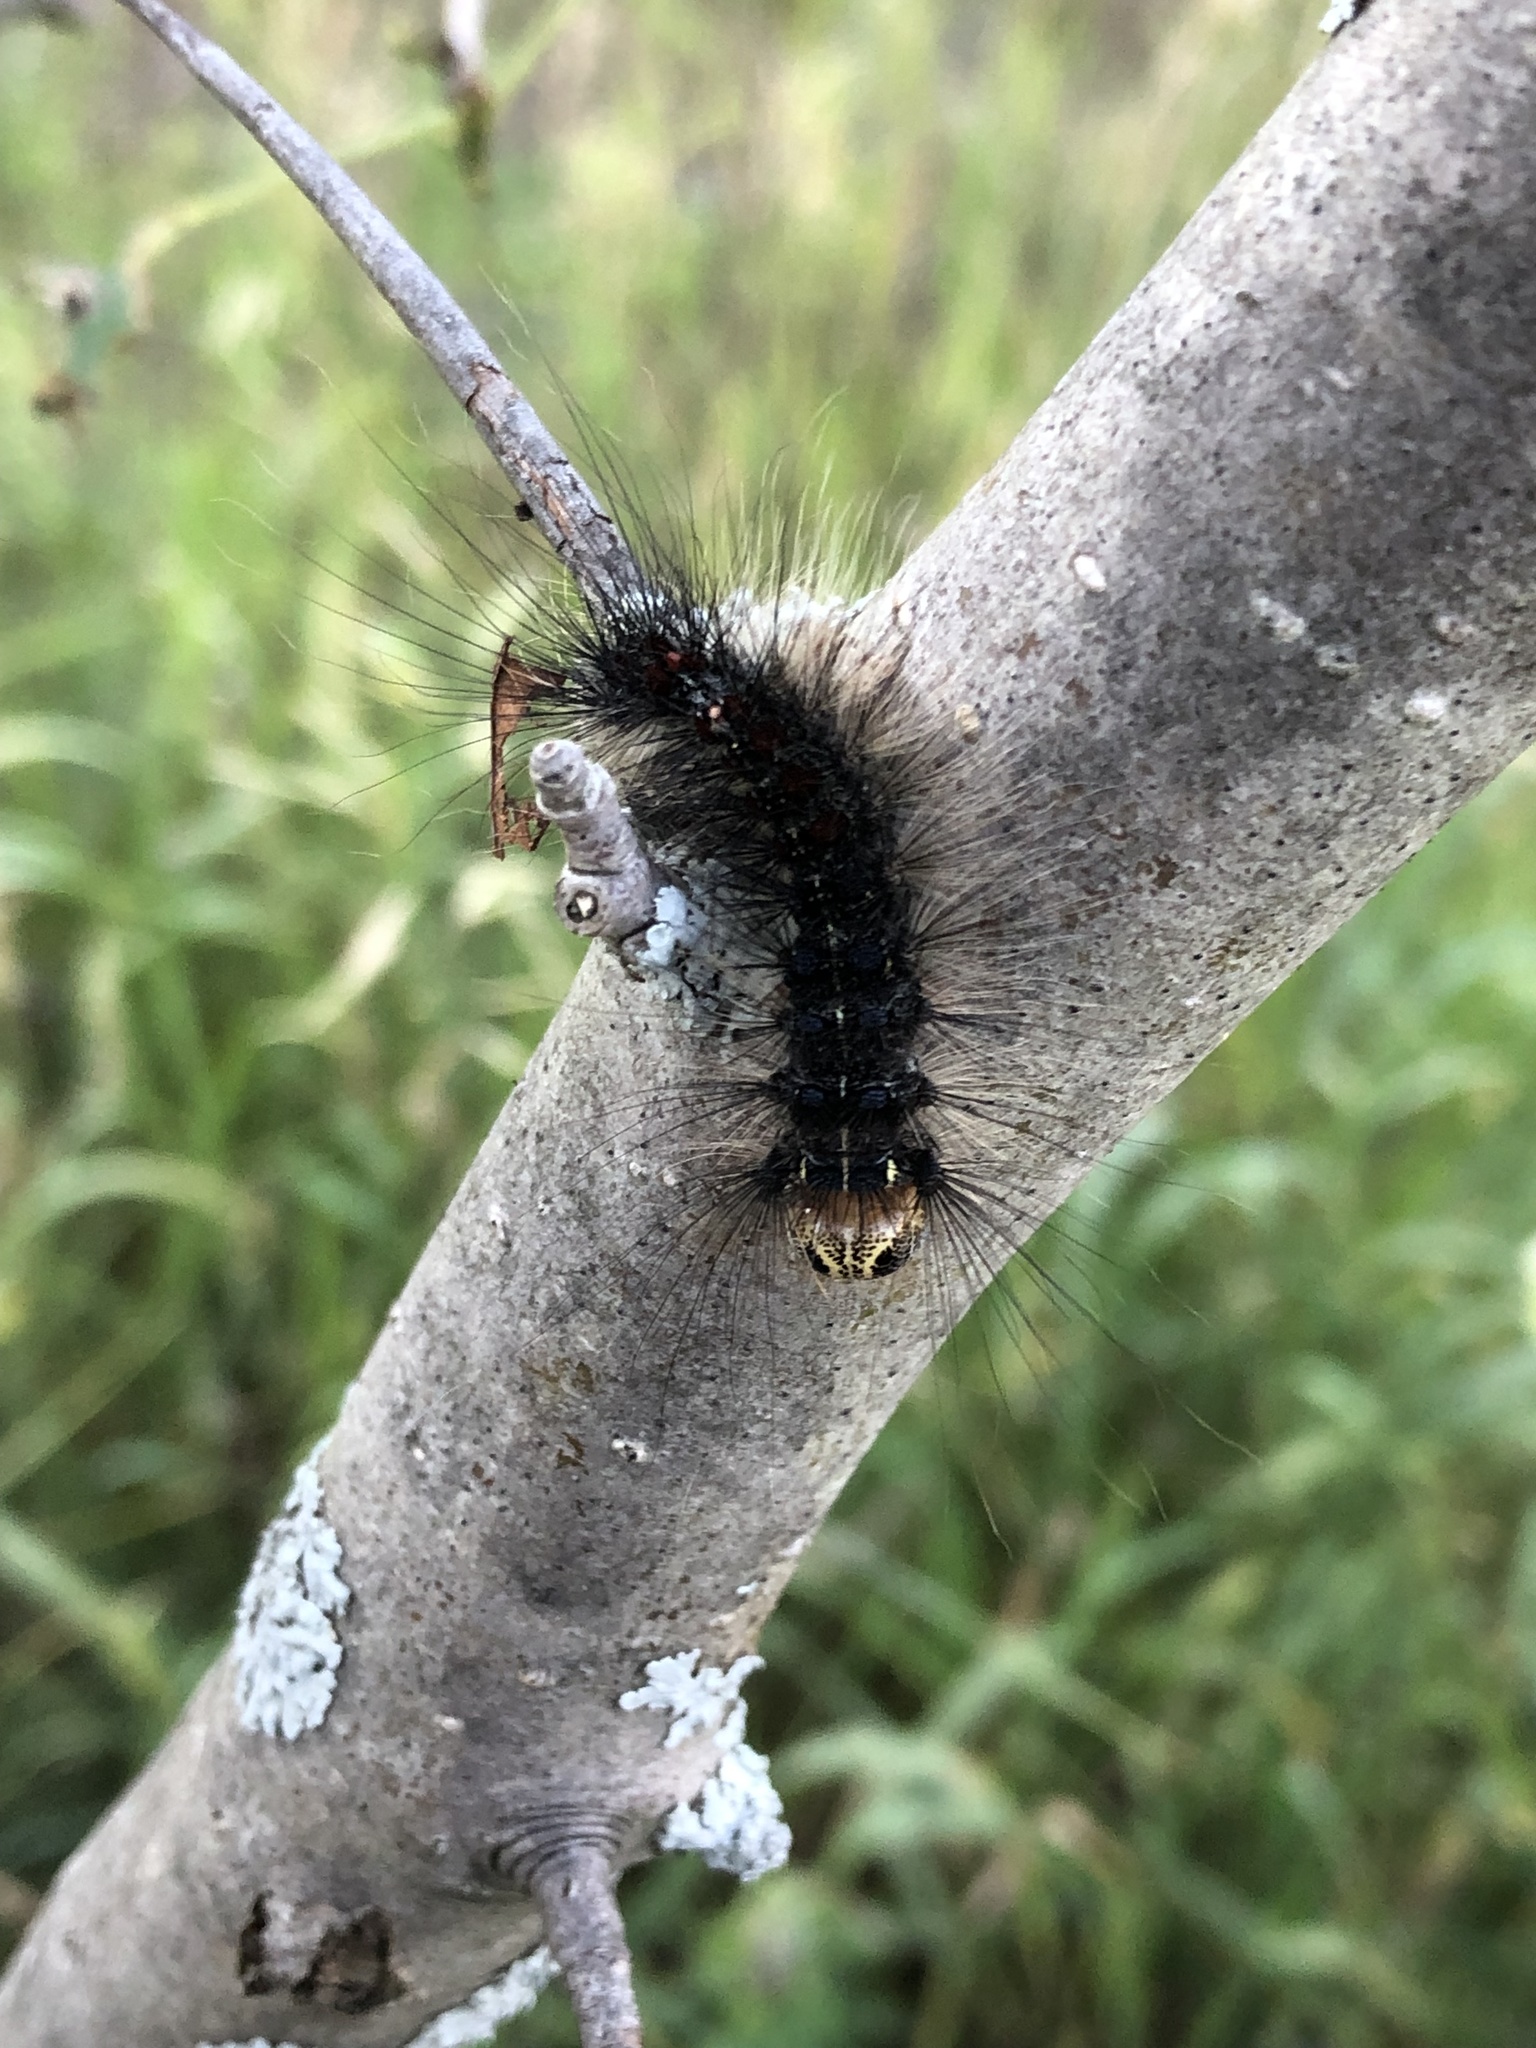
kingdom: Animalia
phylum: Arthropoda
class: Insecta
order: Lepidoptera
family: Erebidae
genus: Lymantria
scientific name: Lymantria dispar
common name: Gypsy moth
